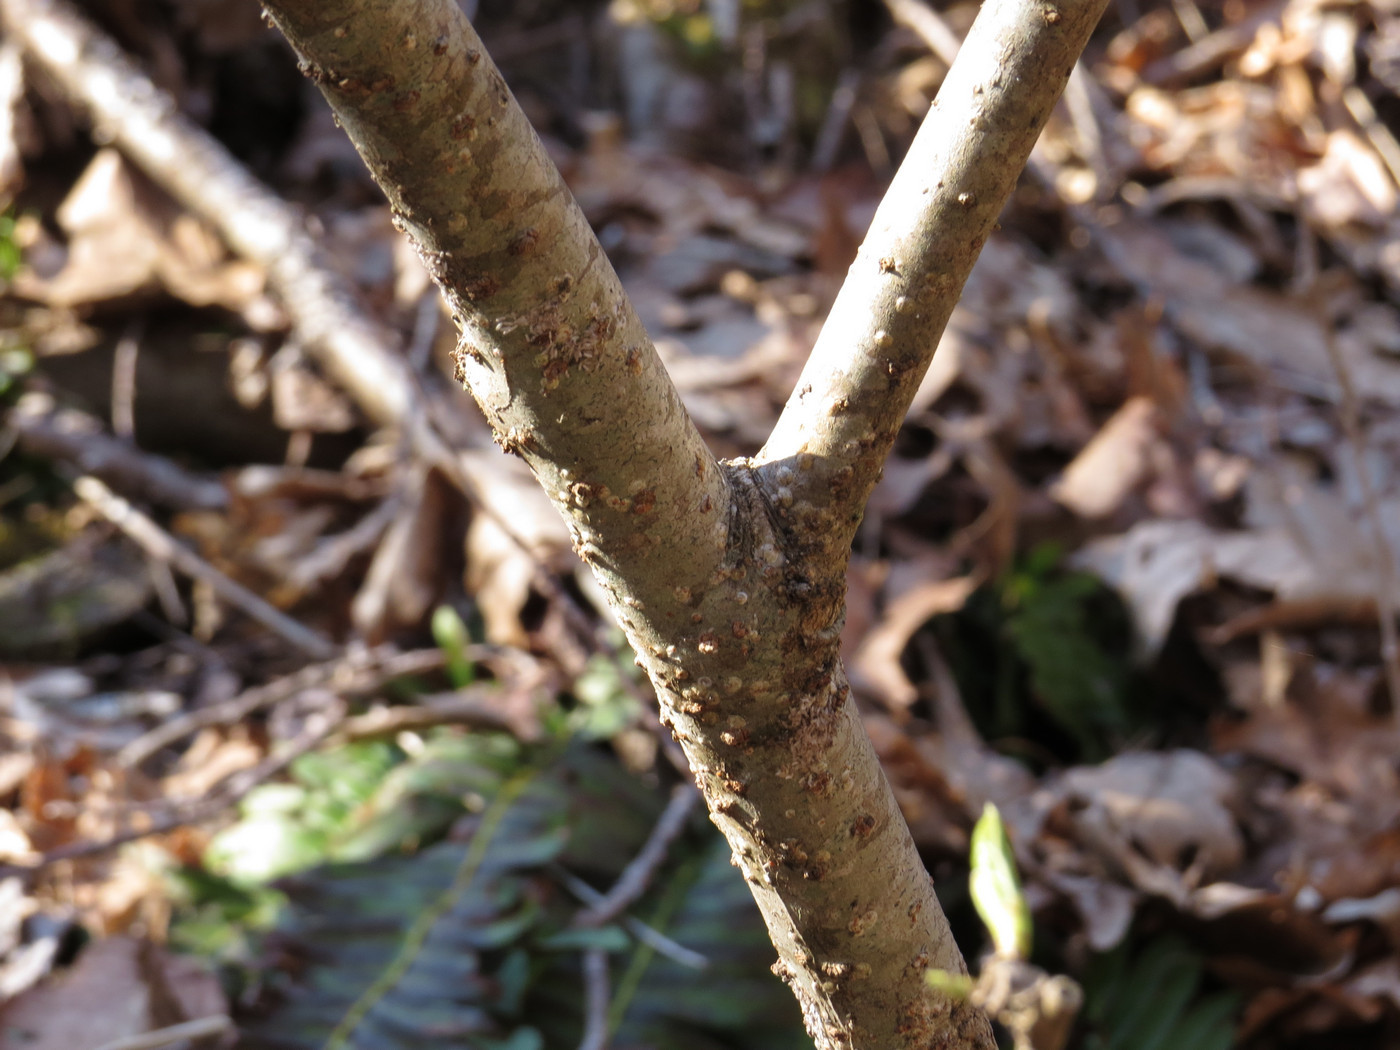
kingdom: Plantae
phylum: Tracheophyta
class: Magnoliopsida
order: Santalales
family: Cervantesiaceae
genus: Pyrularia
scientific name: Pyrularia pubera
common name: Oilnut
